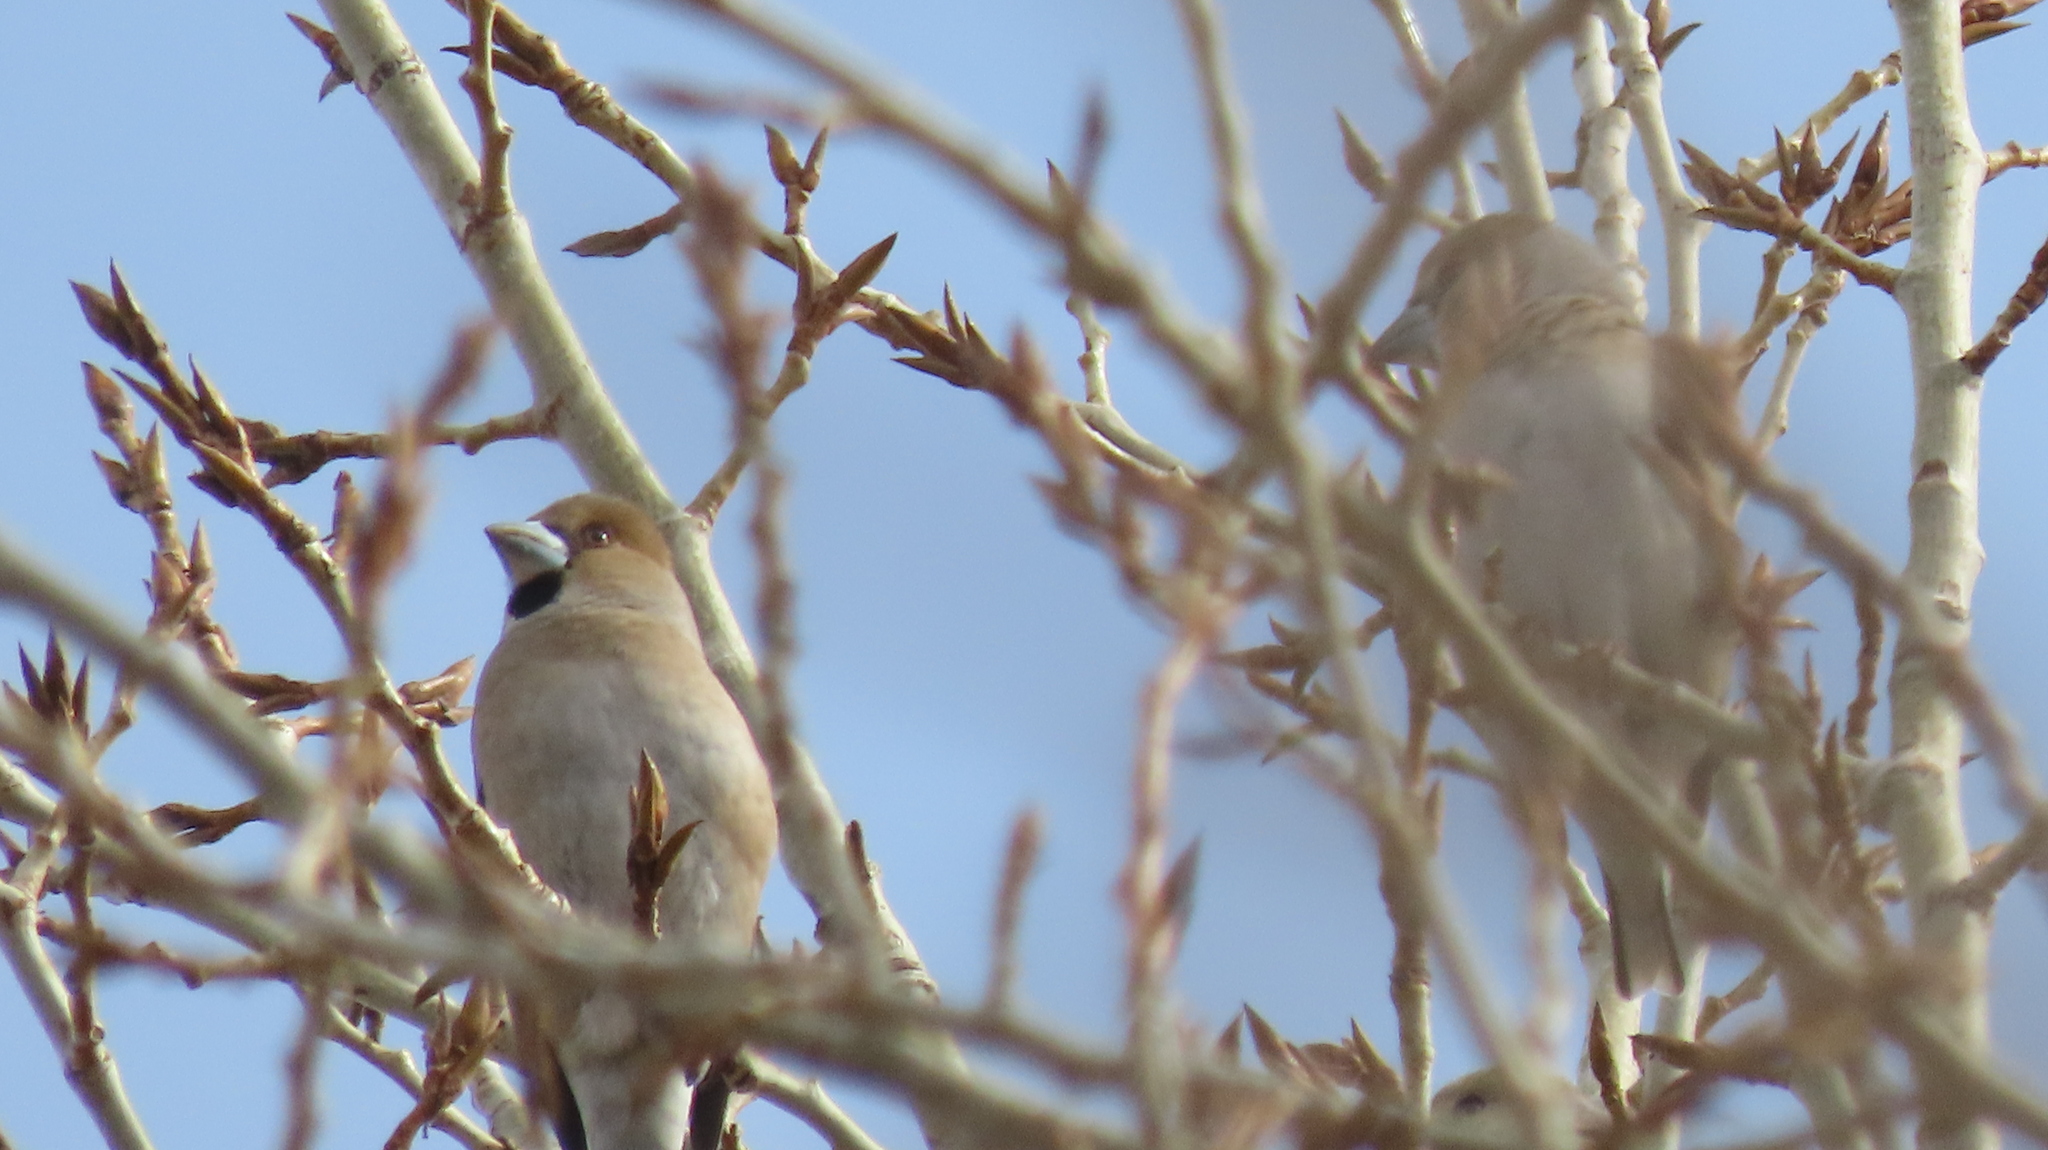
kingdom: Animalia
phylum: Chordata
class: Aves
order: Passeriformes
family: Fringillidae
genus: Coccothraustes
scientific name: Coccothraustes coccothraustes
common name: Hawfinch
